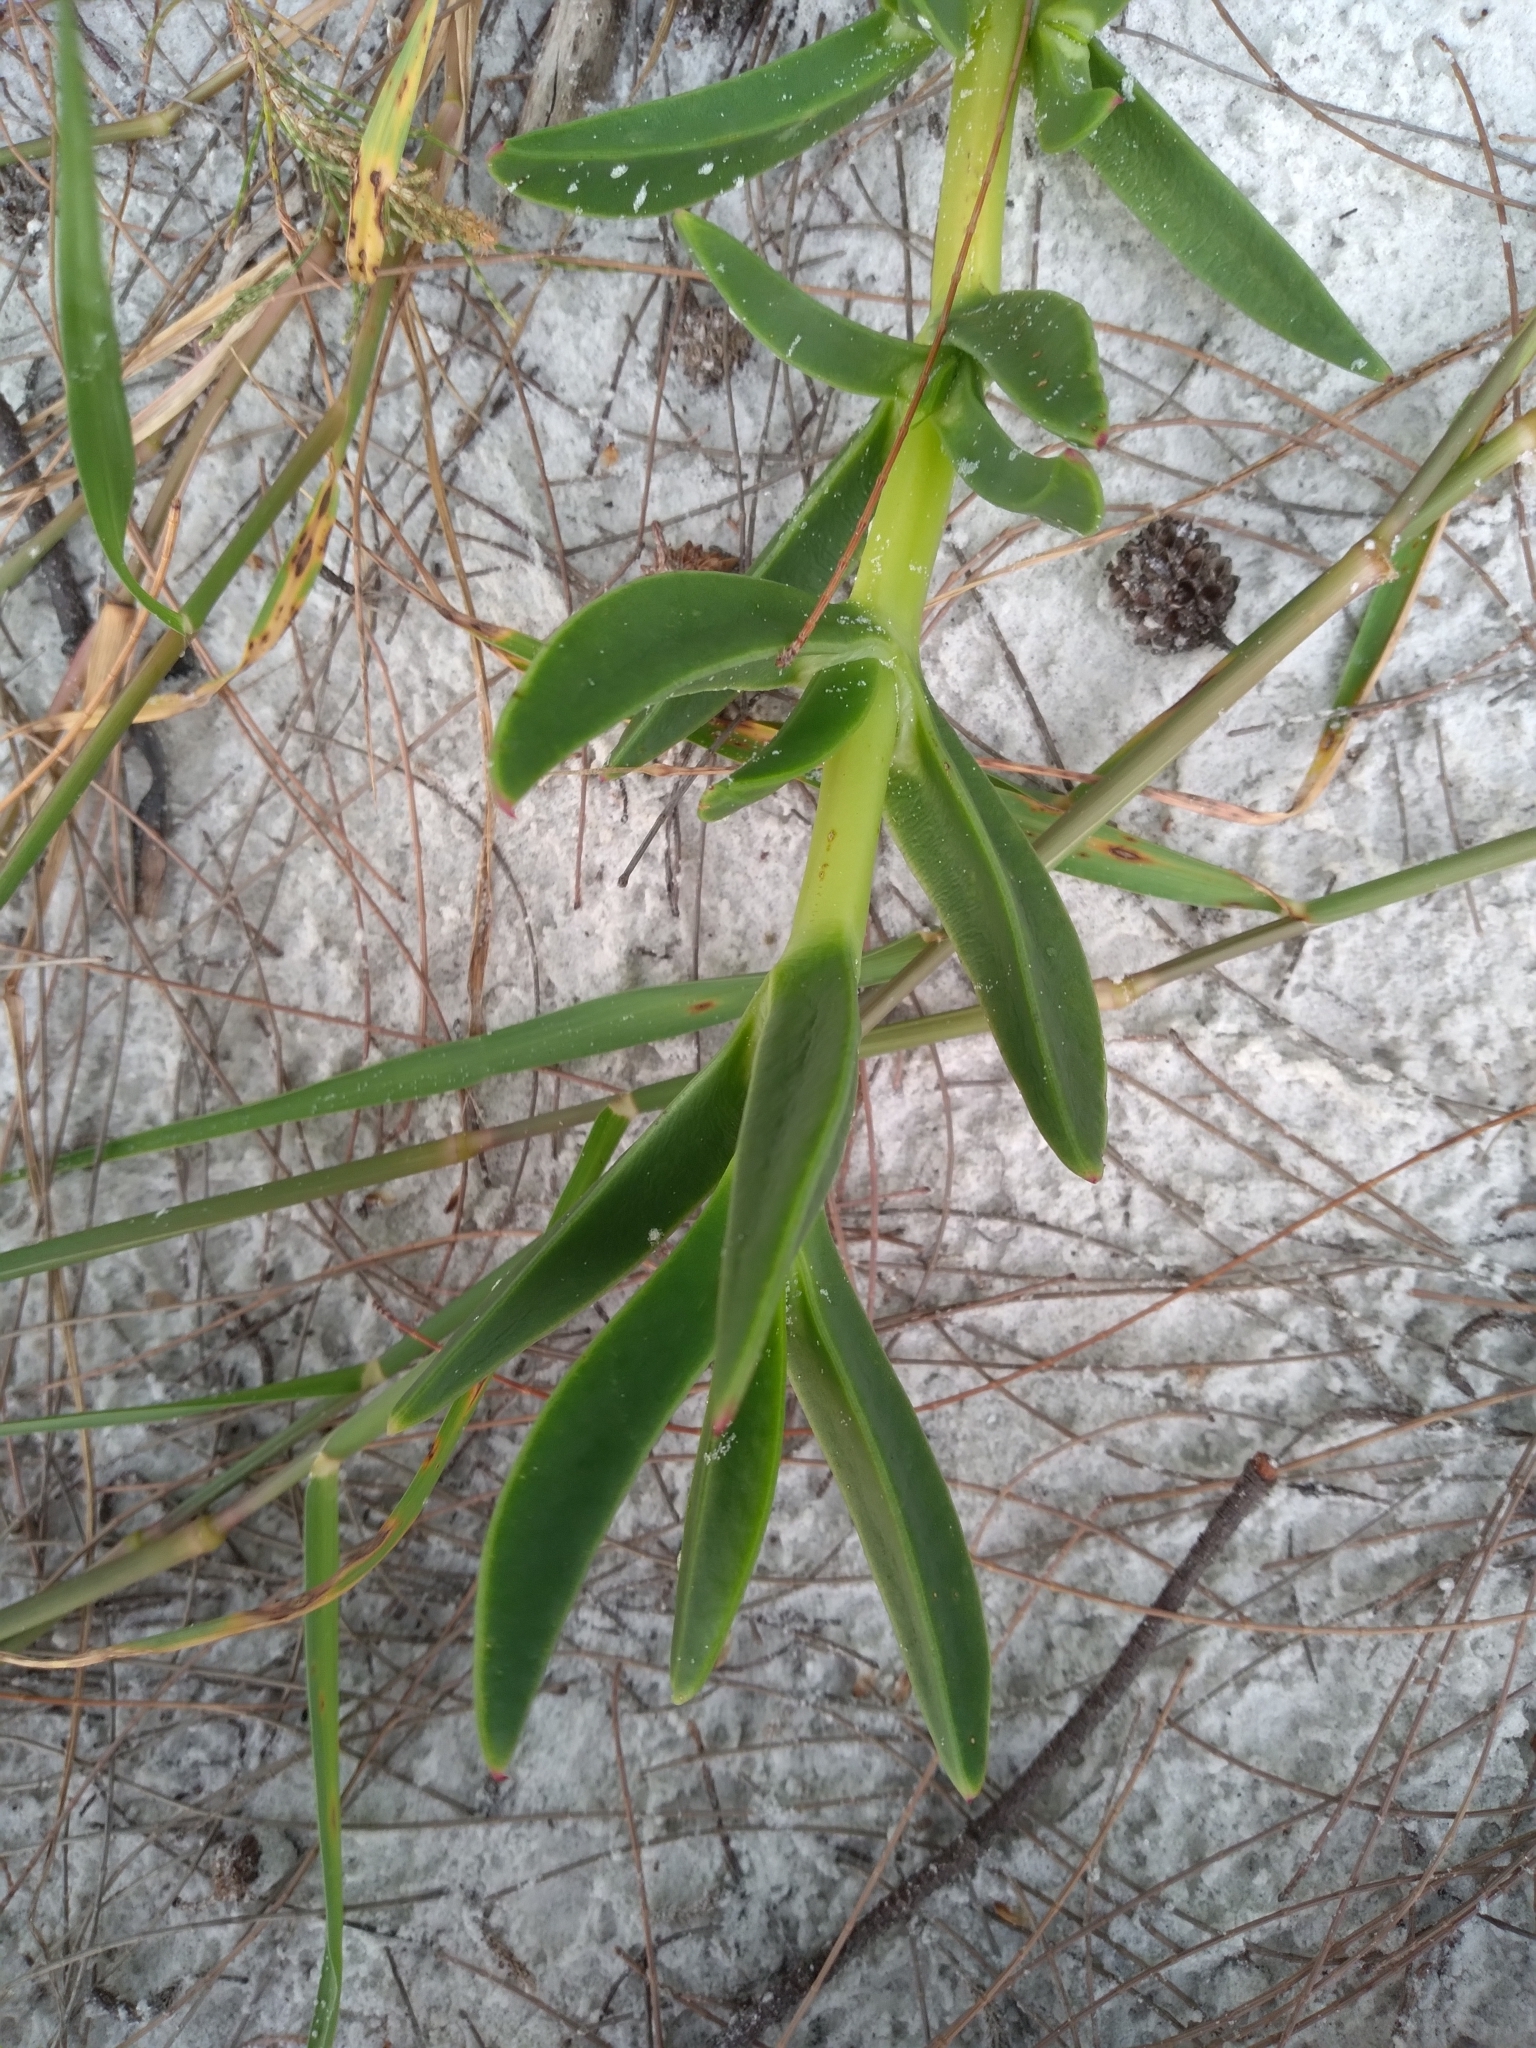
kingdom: Plantae
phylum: Tracheophyta
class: Magnoliopsida
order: Asterales
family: Asteraceae
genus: Iva
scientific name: Iva imbricata
